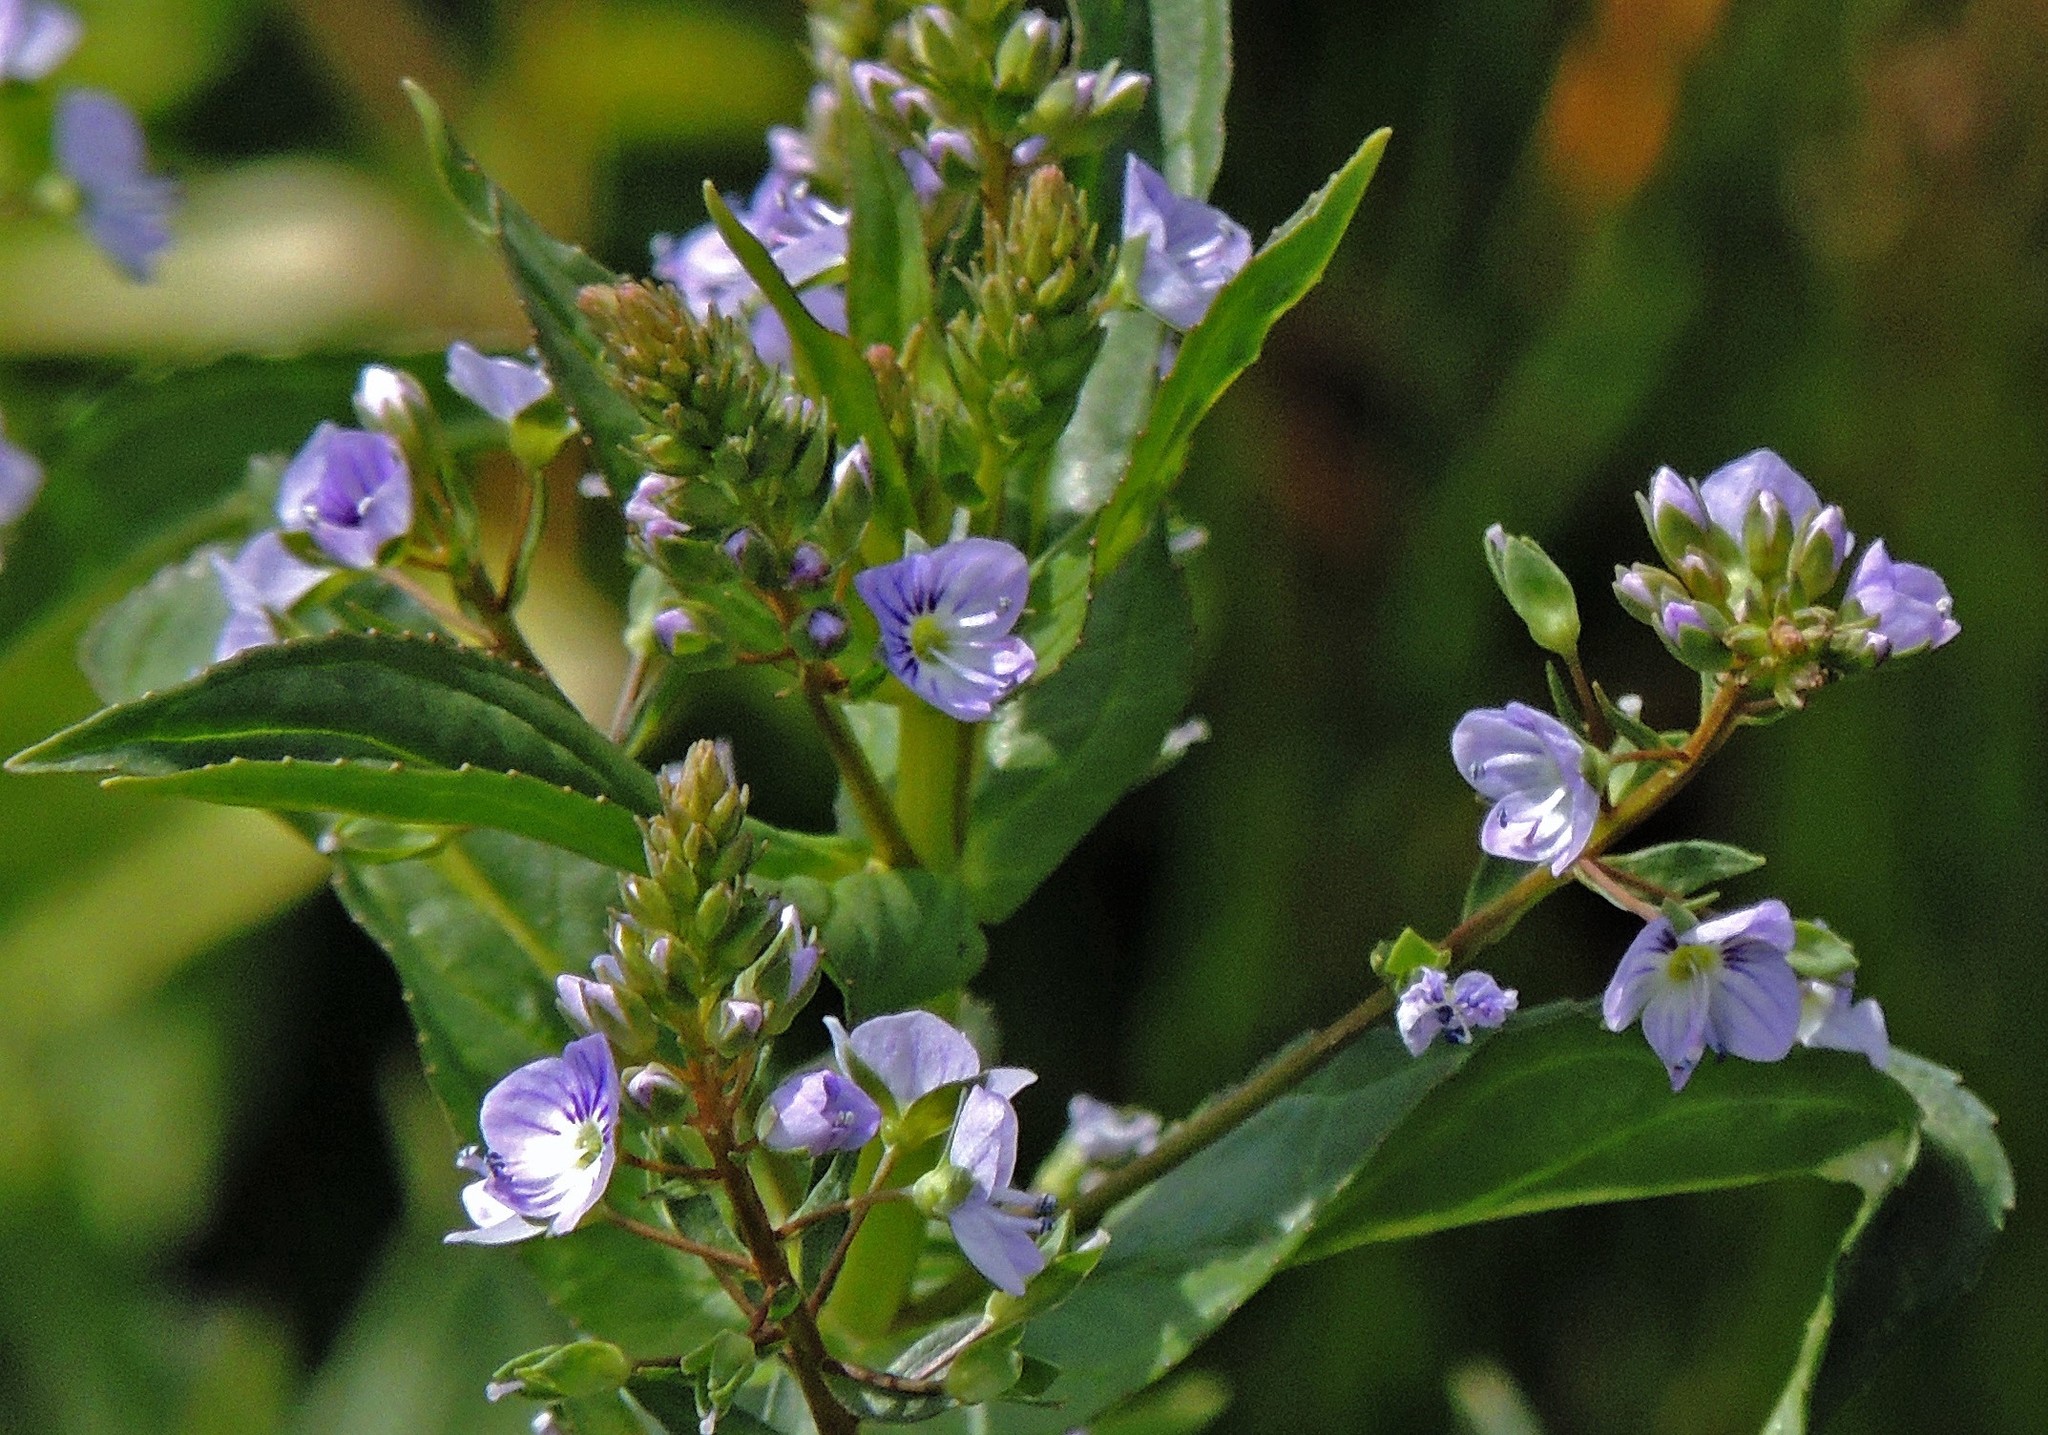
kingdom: Plantae
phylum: Tracheophyta
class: Magnoliopsida
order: Lamiales
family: Plantaginaceae
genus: Veronica
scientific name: Veronica anagallis-aquatica
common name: Water speedwell
